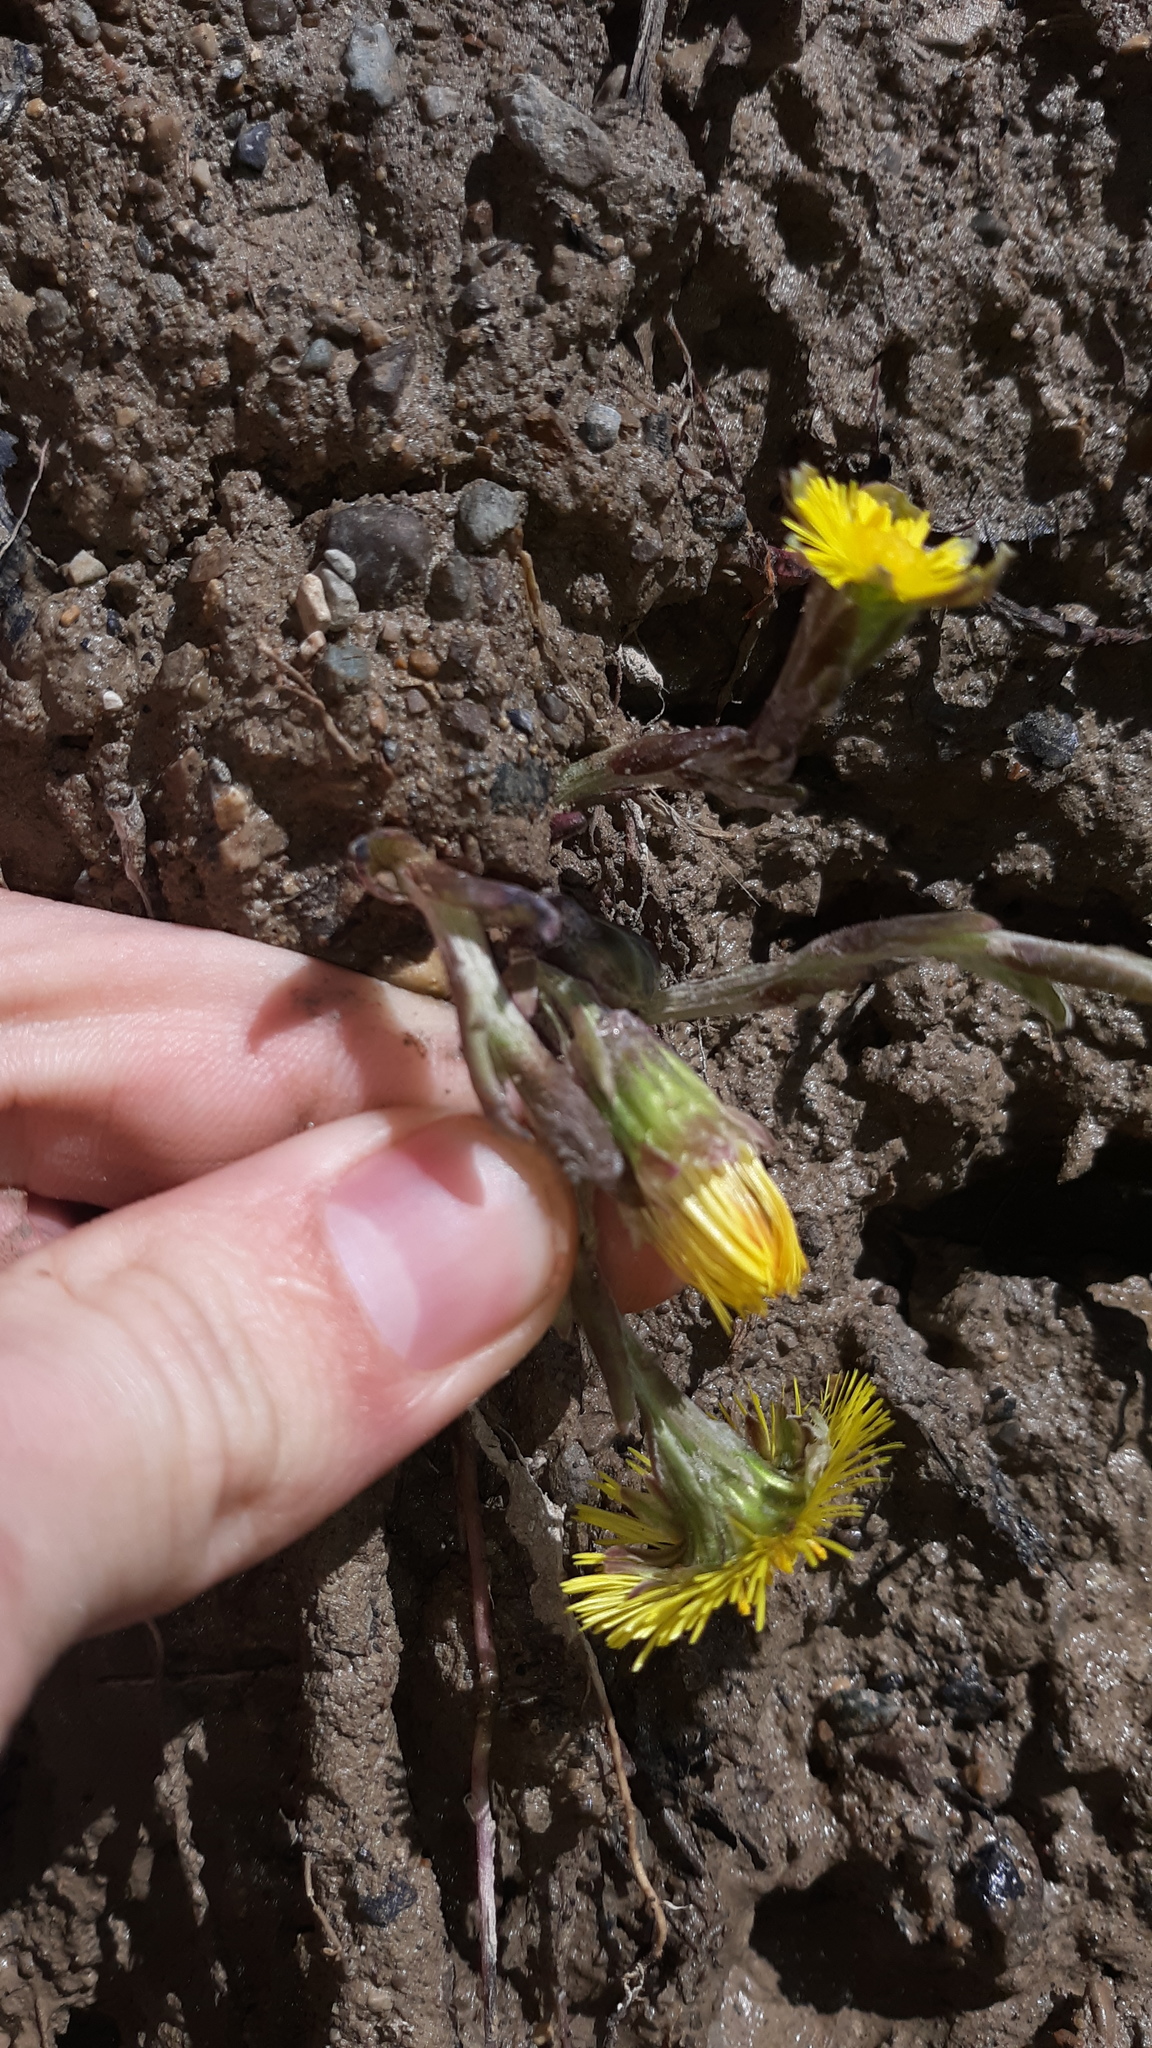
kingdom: Plantae
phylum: Tracheophyta
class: Magnoliopsida
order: Asterales
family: Asteraceae
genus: Tussilago
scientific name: Tussilago farfara
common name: Coltsfoot
